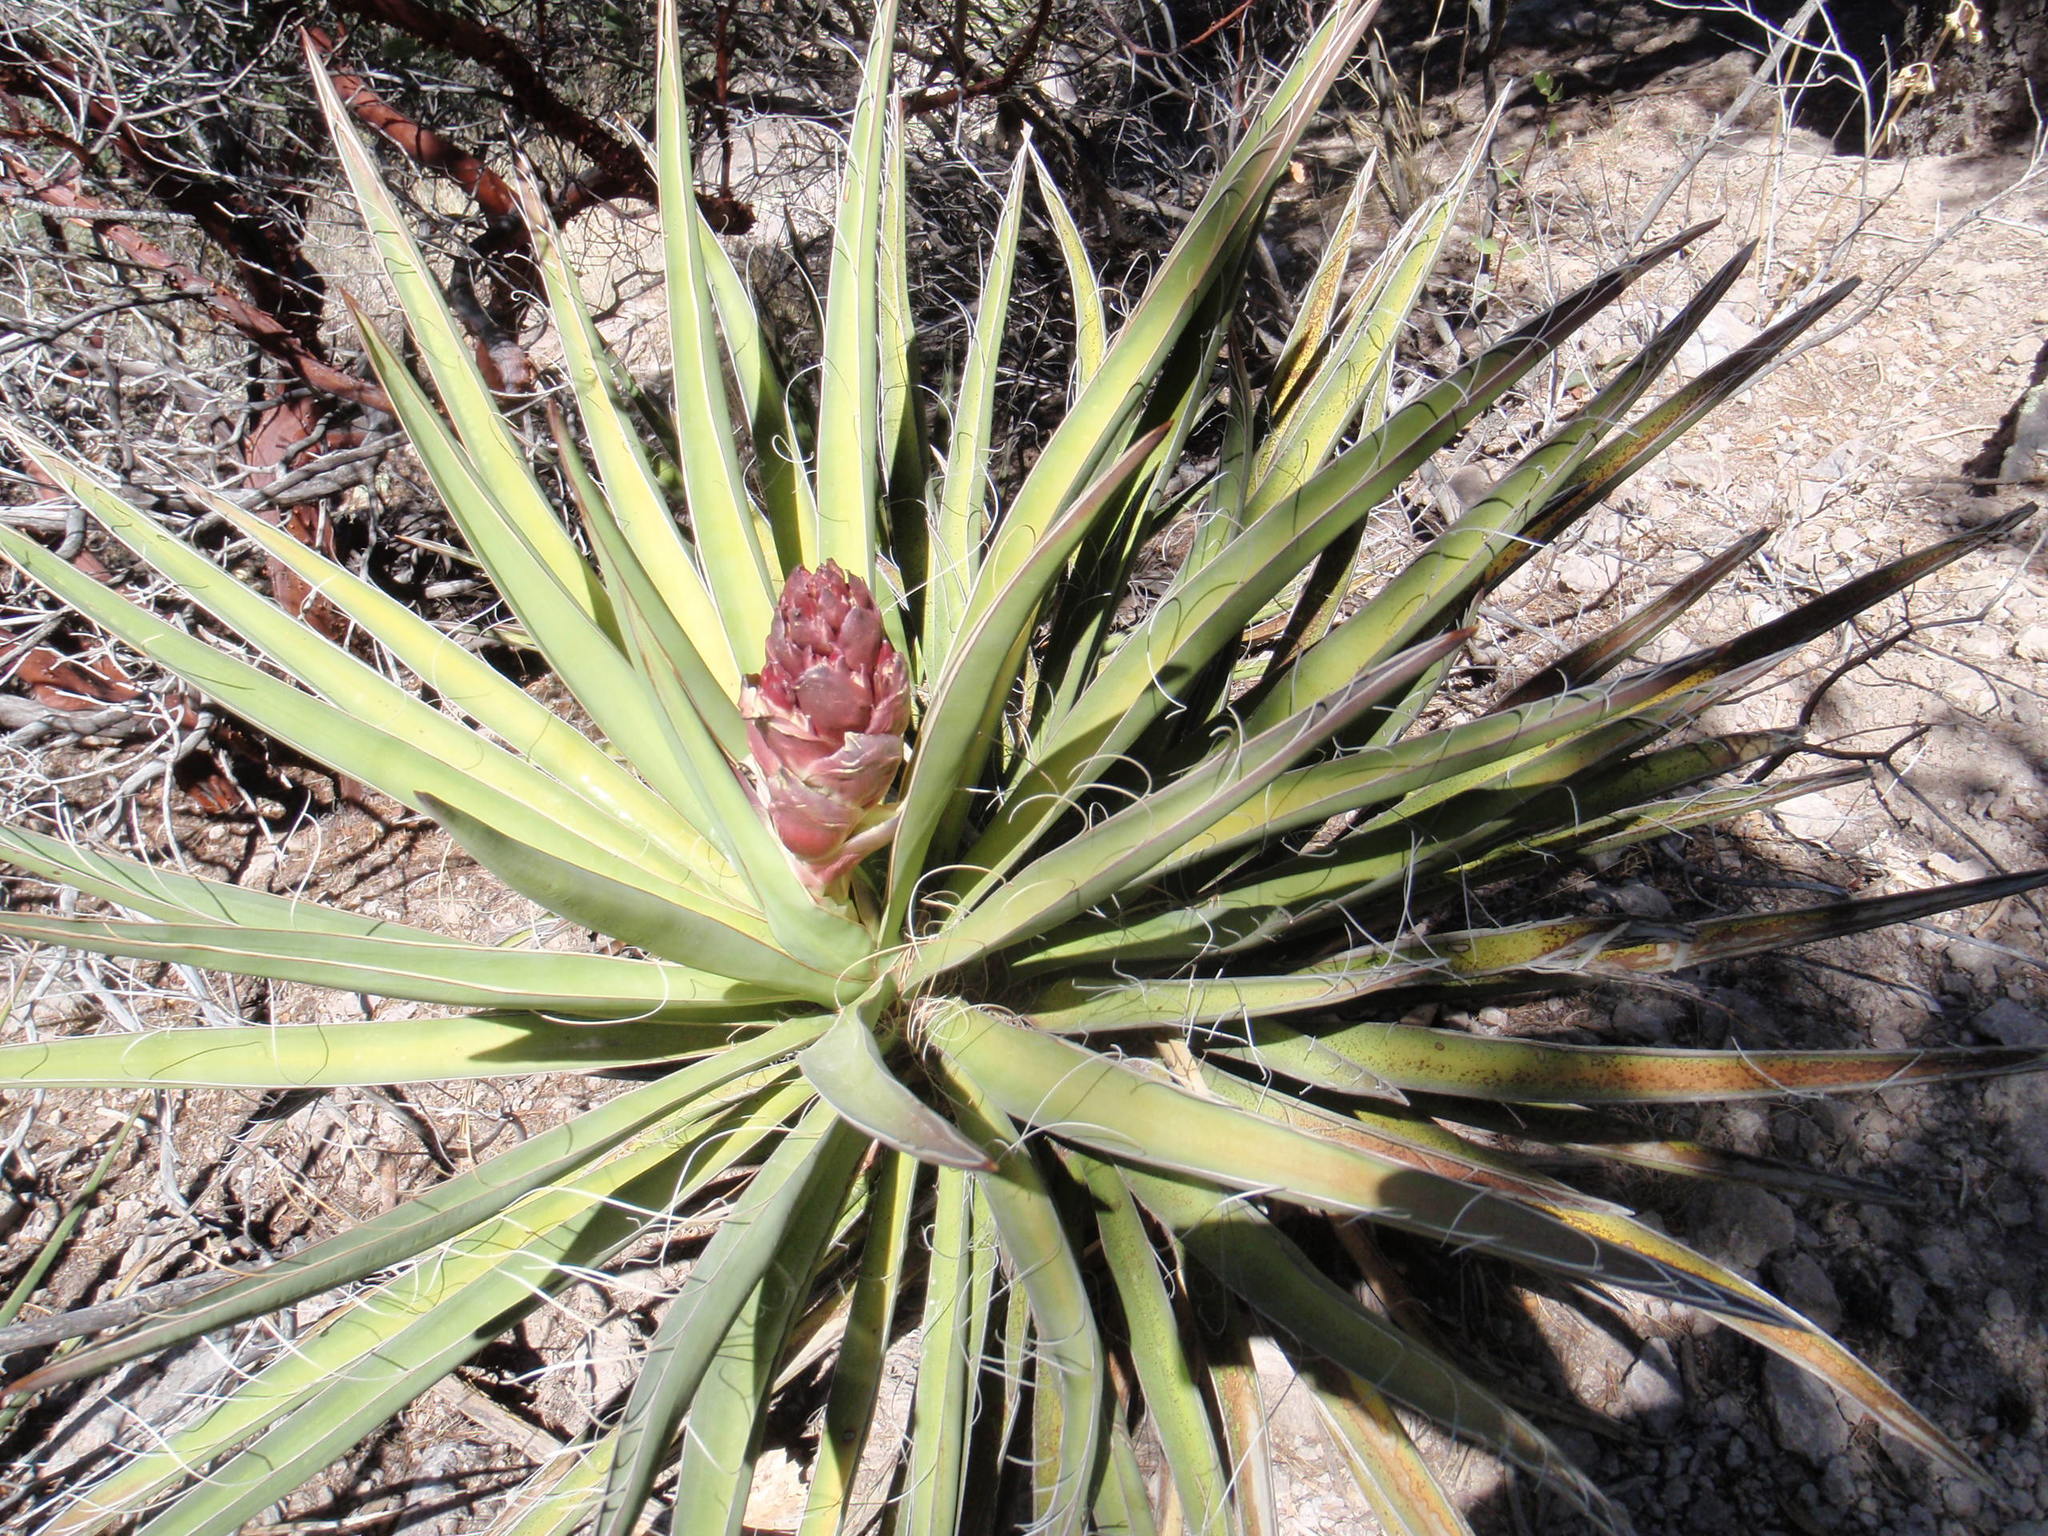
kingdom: Plantae
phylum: Tracheophyta
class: Liliopsida
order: Asparagales
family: Asparagaceae
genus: Yucca
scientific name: Yucca baccata
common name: Banana yucca
